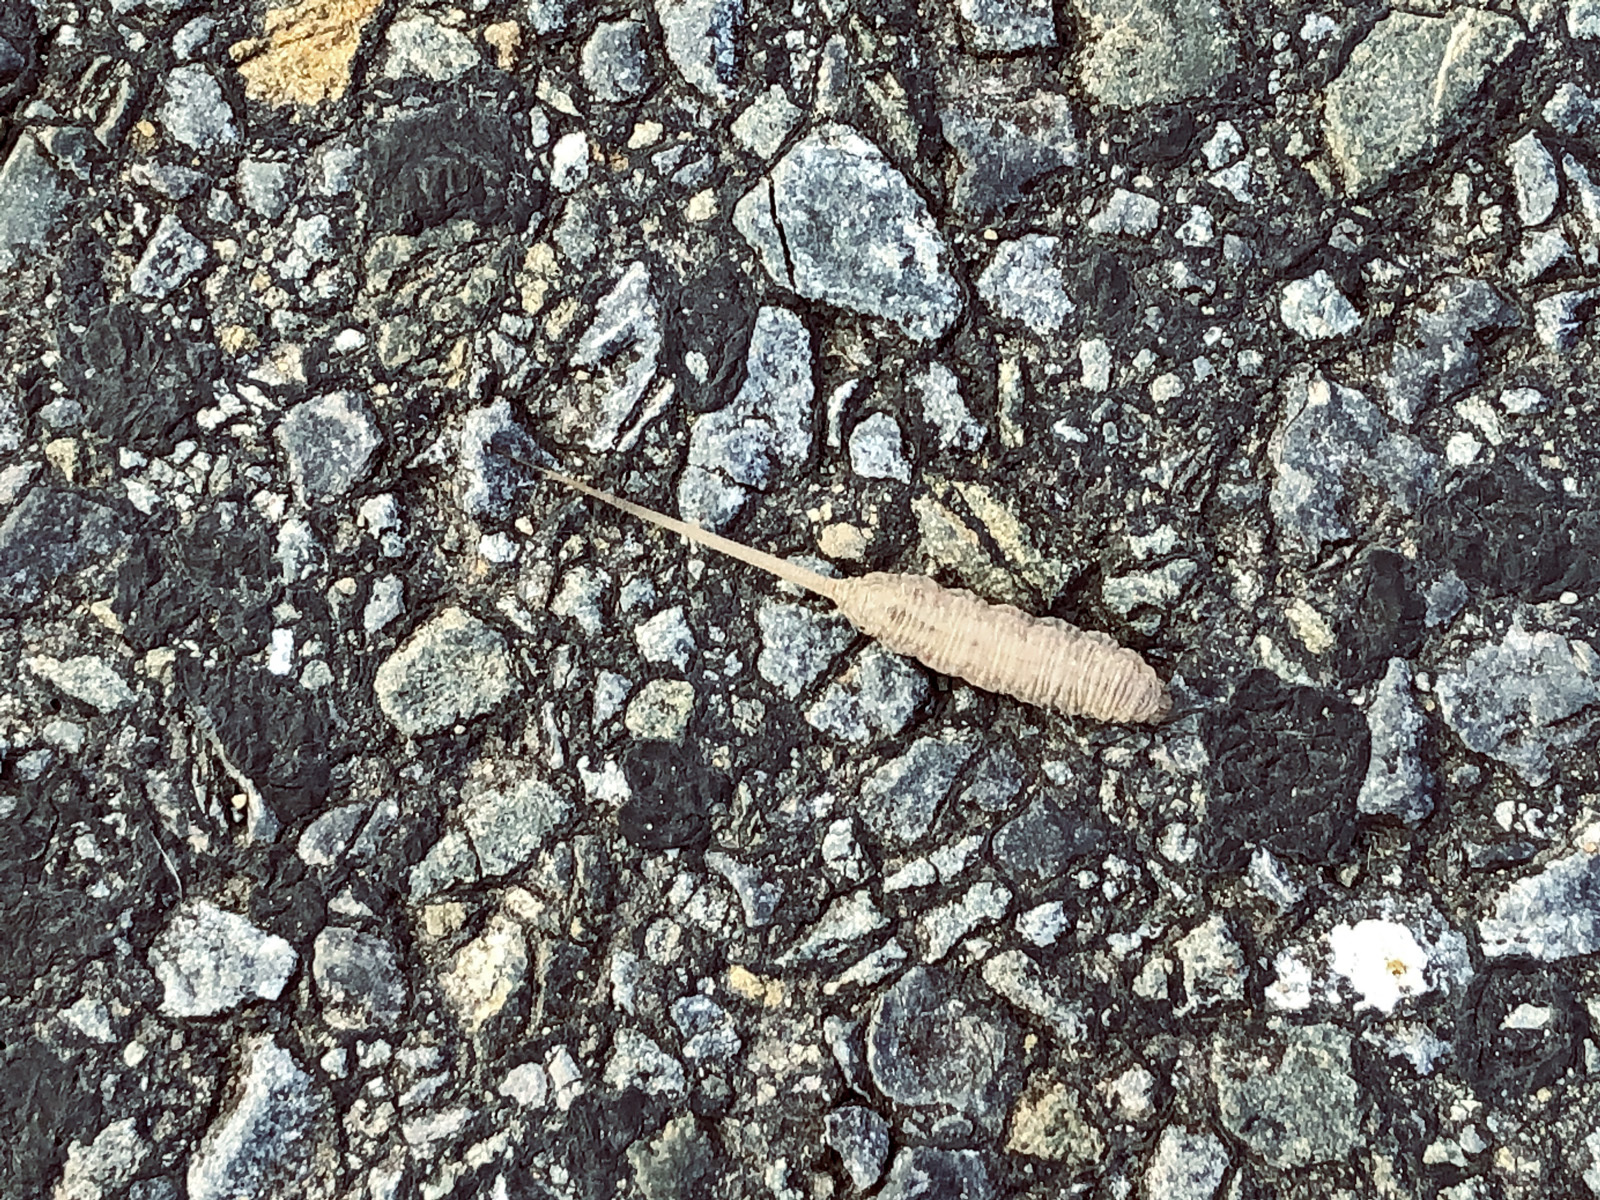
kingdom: Animalia
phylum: Arthropoda
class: Insecta
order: Diptera
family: Syrphidae
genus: Eristalis
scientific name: Eristalis tenax
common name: Drone fly
